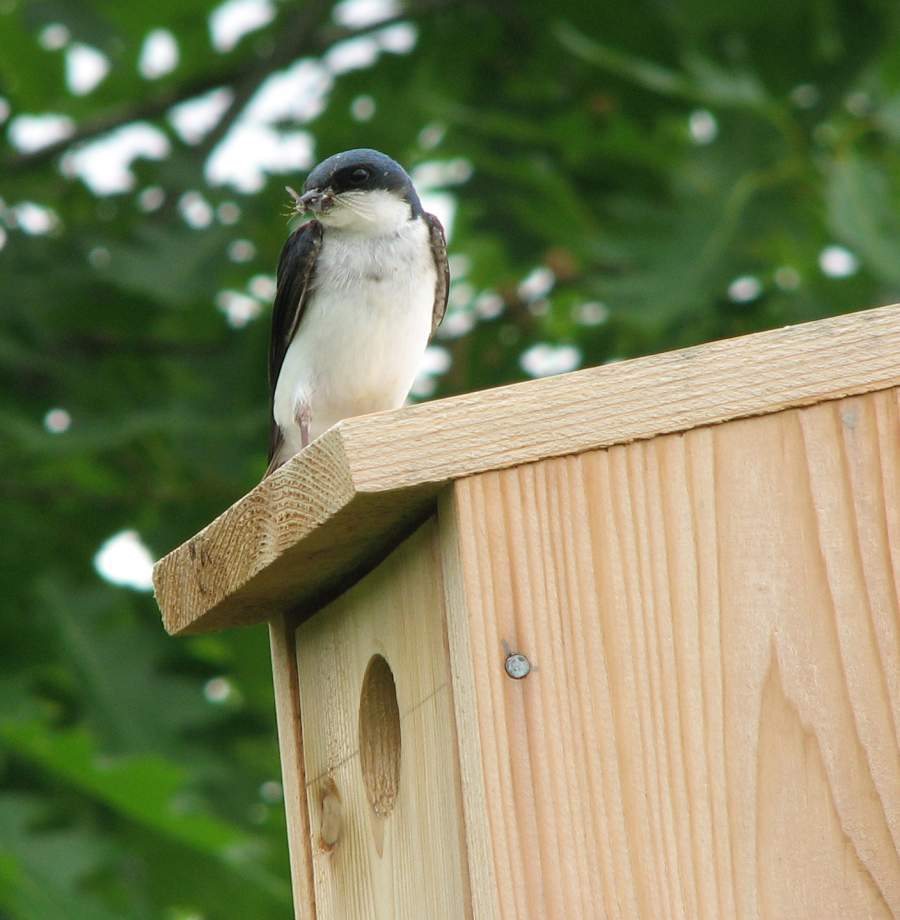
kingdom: Animalia
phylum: Chordata
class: Aves
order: Passeriformes
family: Hirundinidae
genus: Tachycineta
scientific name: Tachycineta bicolor
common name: Tree swallow
